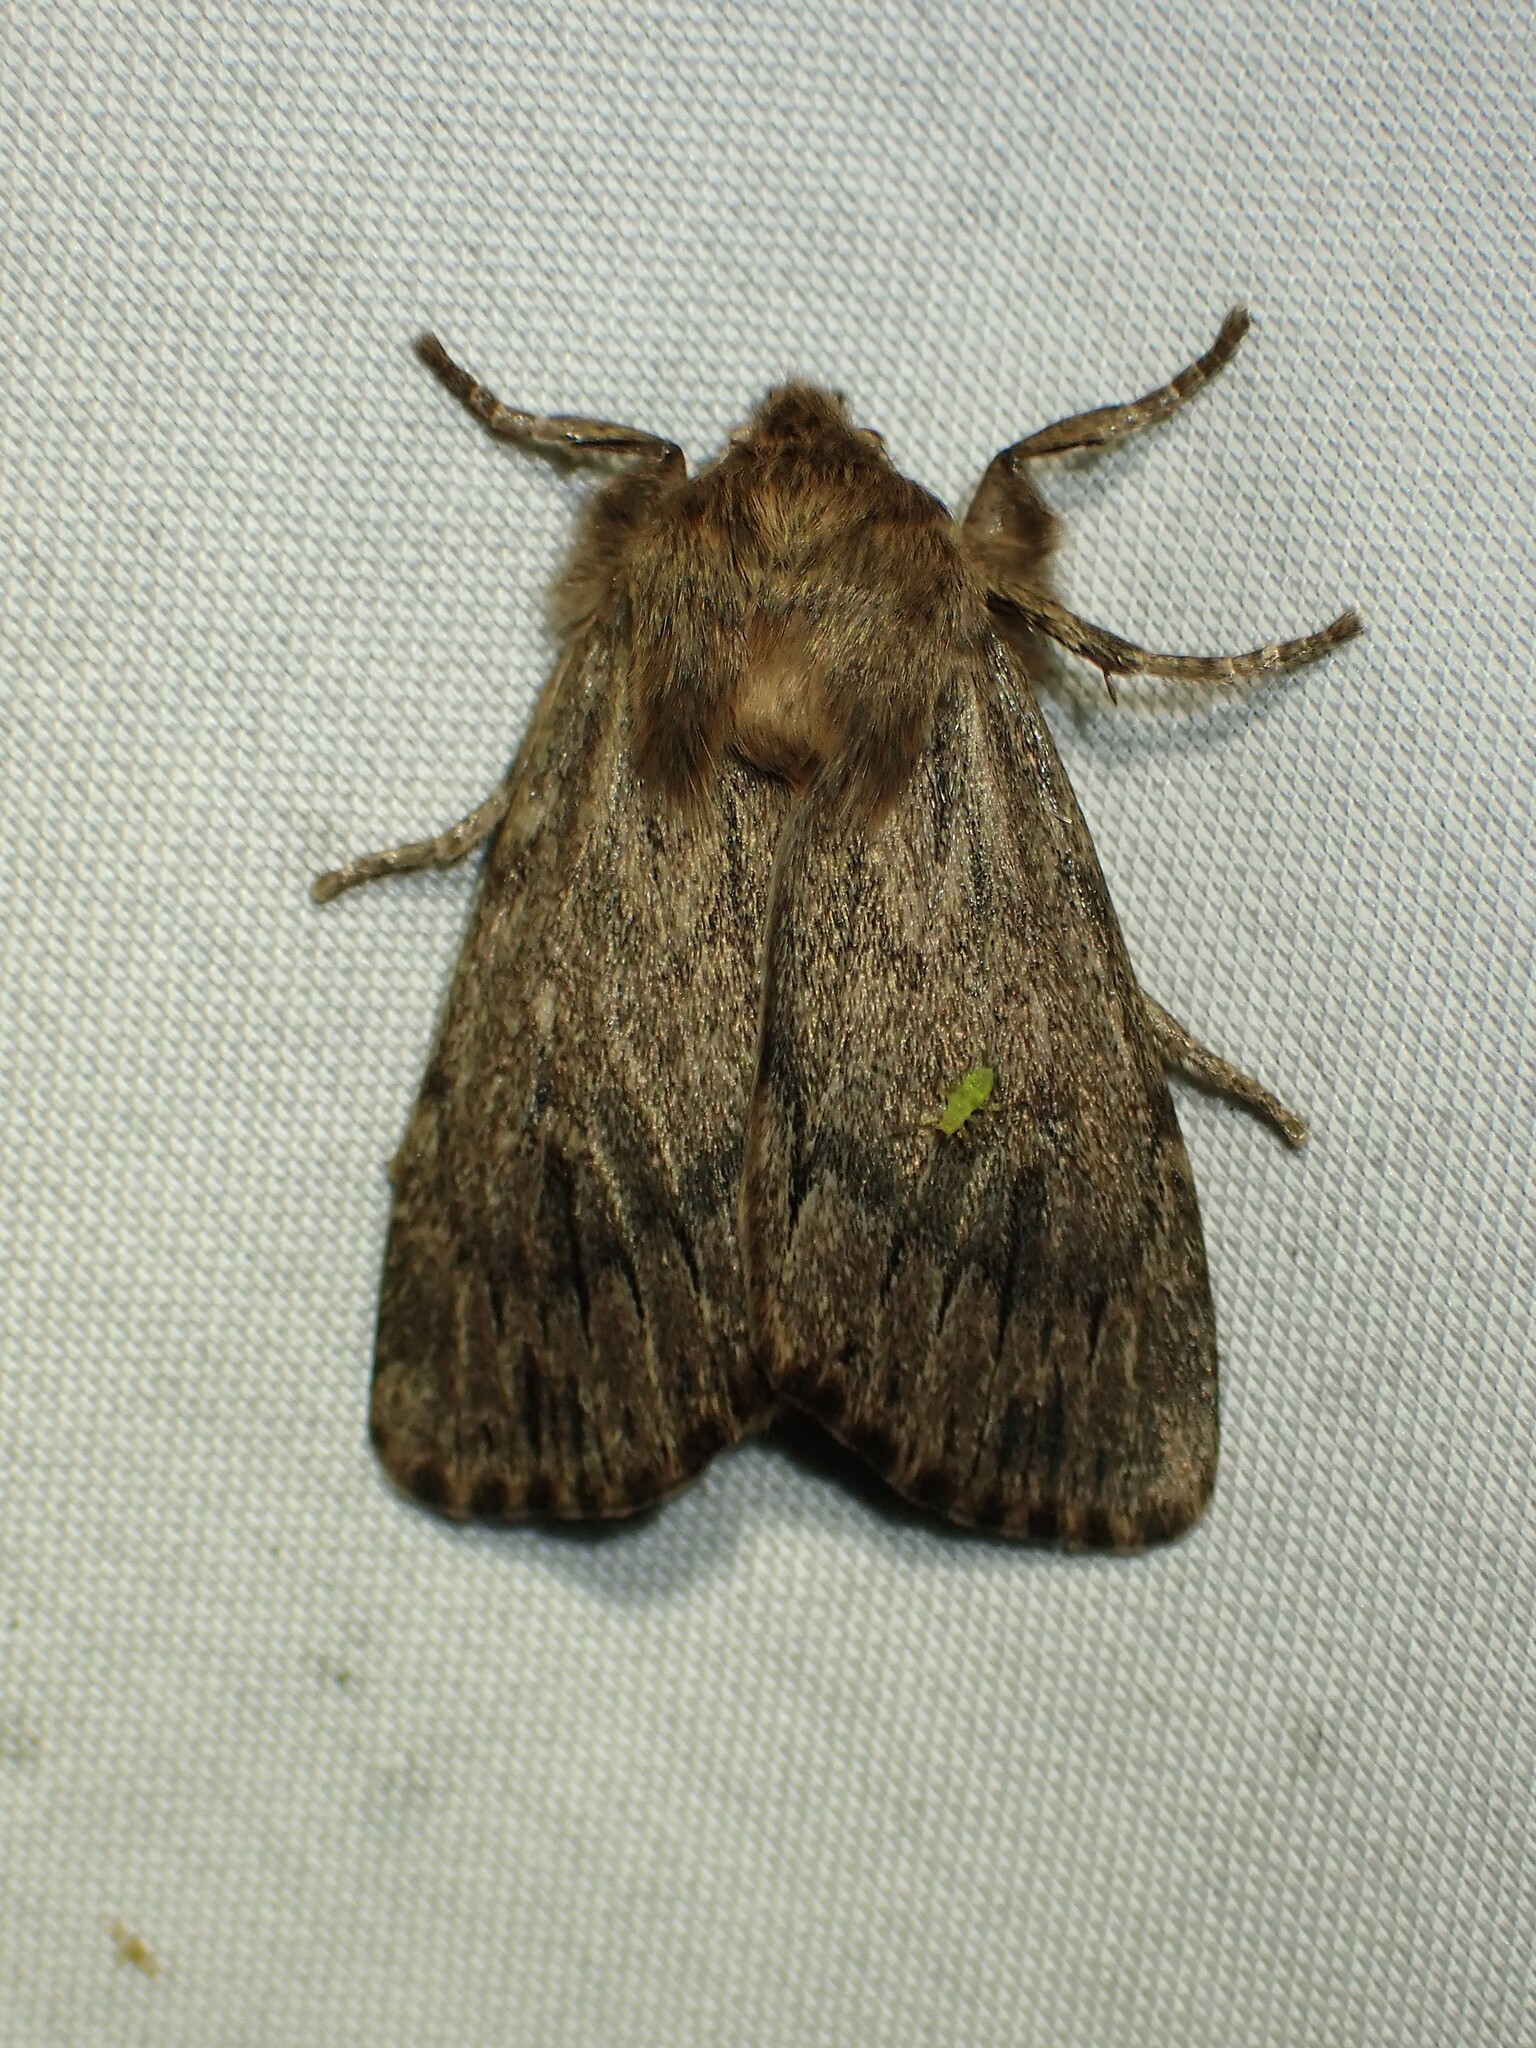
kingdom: Animalia
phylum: Arthropoda
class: Insecta
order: Lepidoptera
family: Noctuidae
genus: Ufeus
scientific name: Ufeus satyricus
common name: Brown satyr moth
